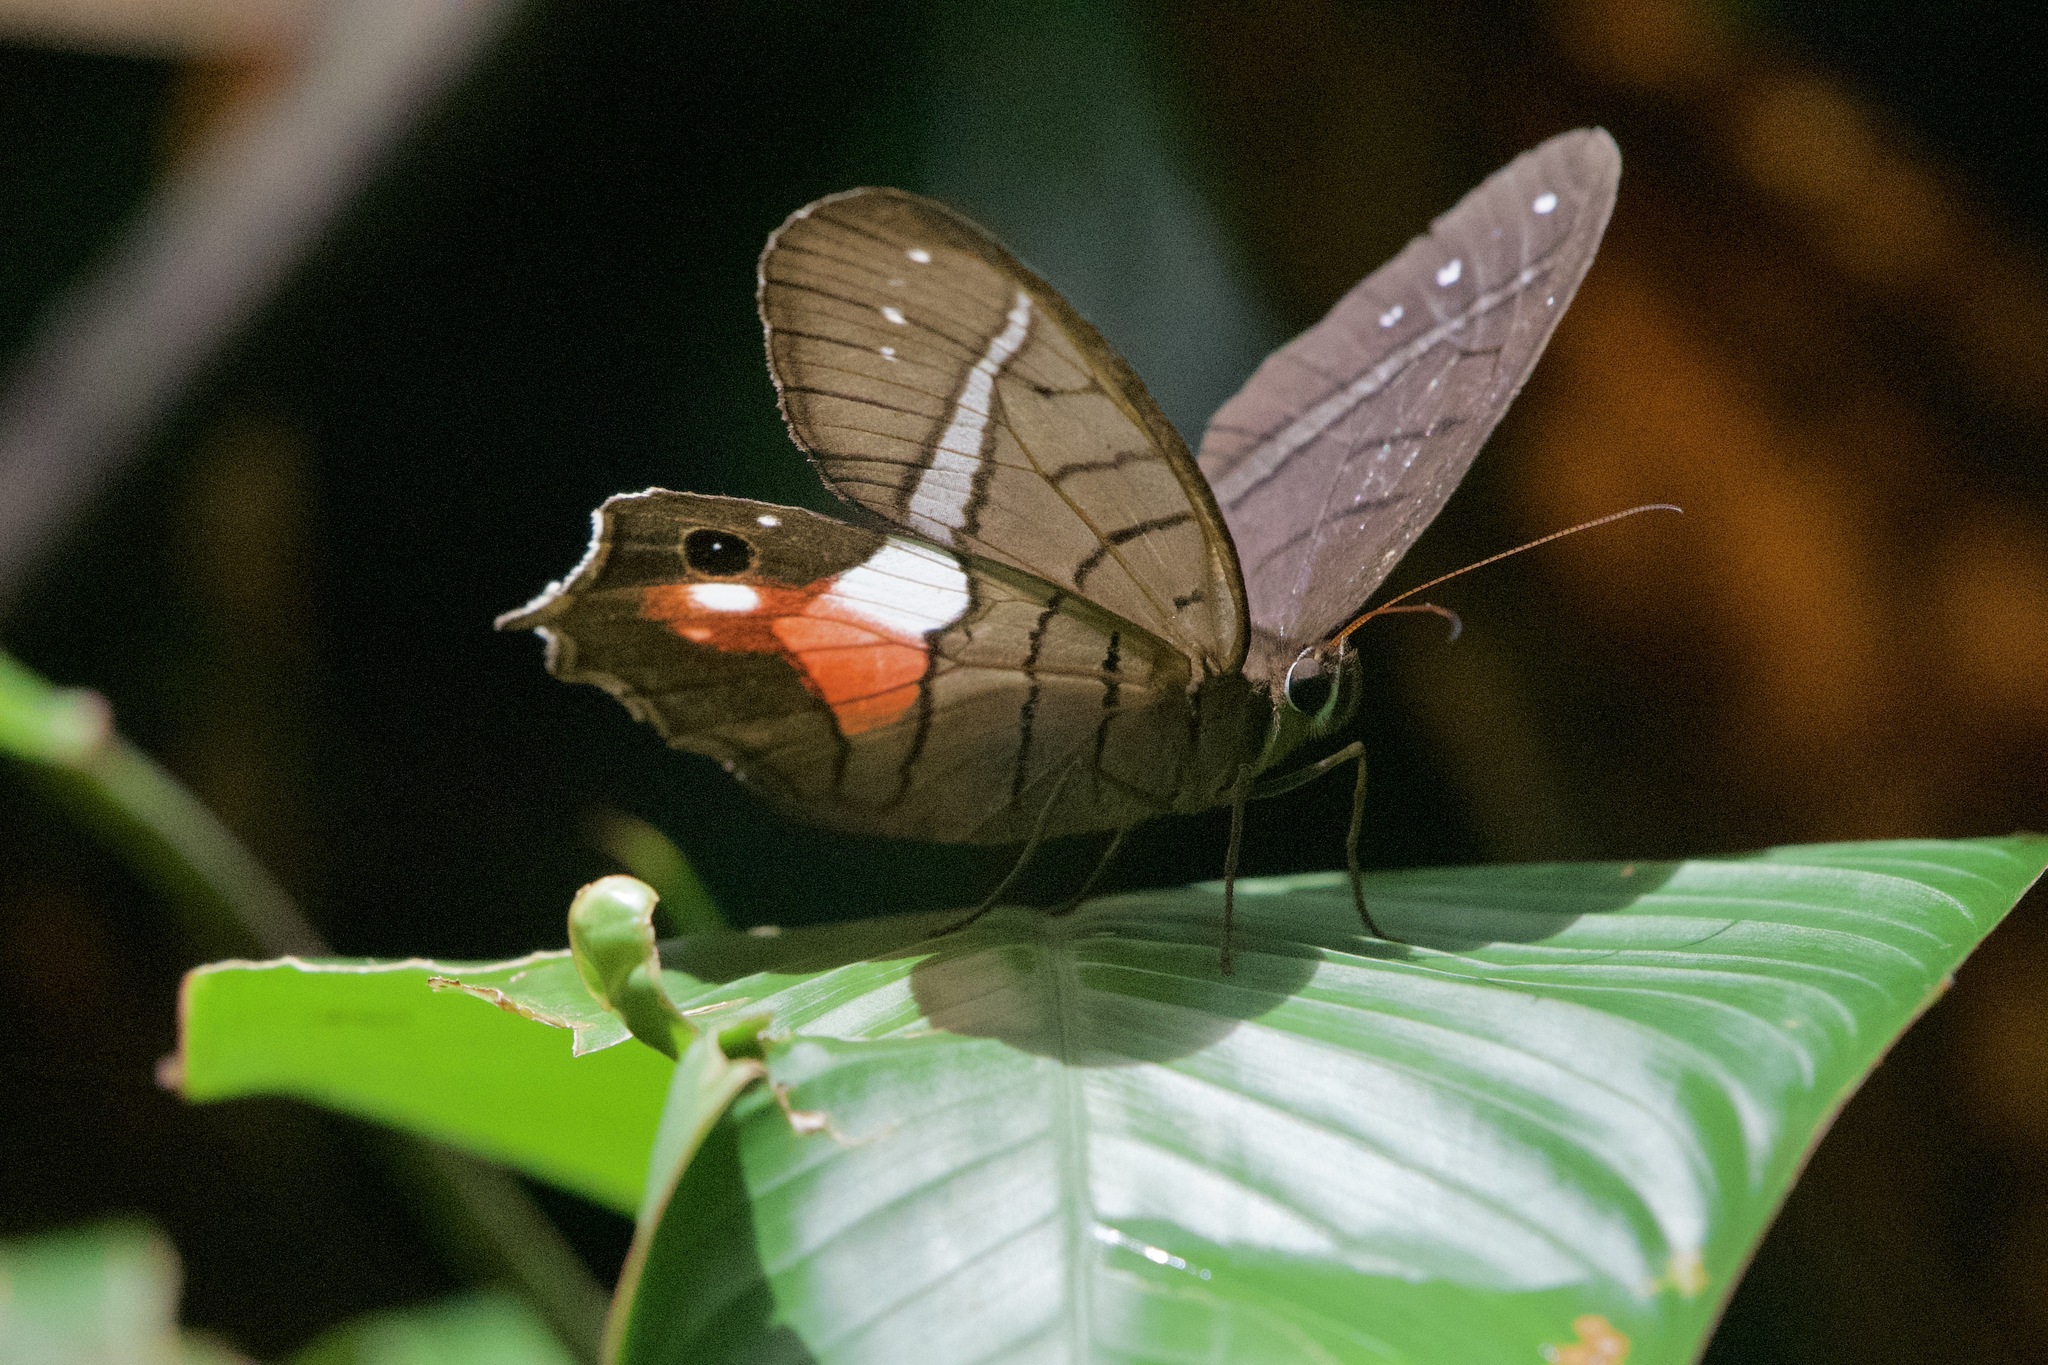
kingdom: Animalia
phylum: Arthropoda
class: Insecta
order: Lepidoptera
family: Nymphalidae
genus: Pierella
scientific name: Pierella helvina
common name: Red-washed satyr
